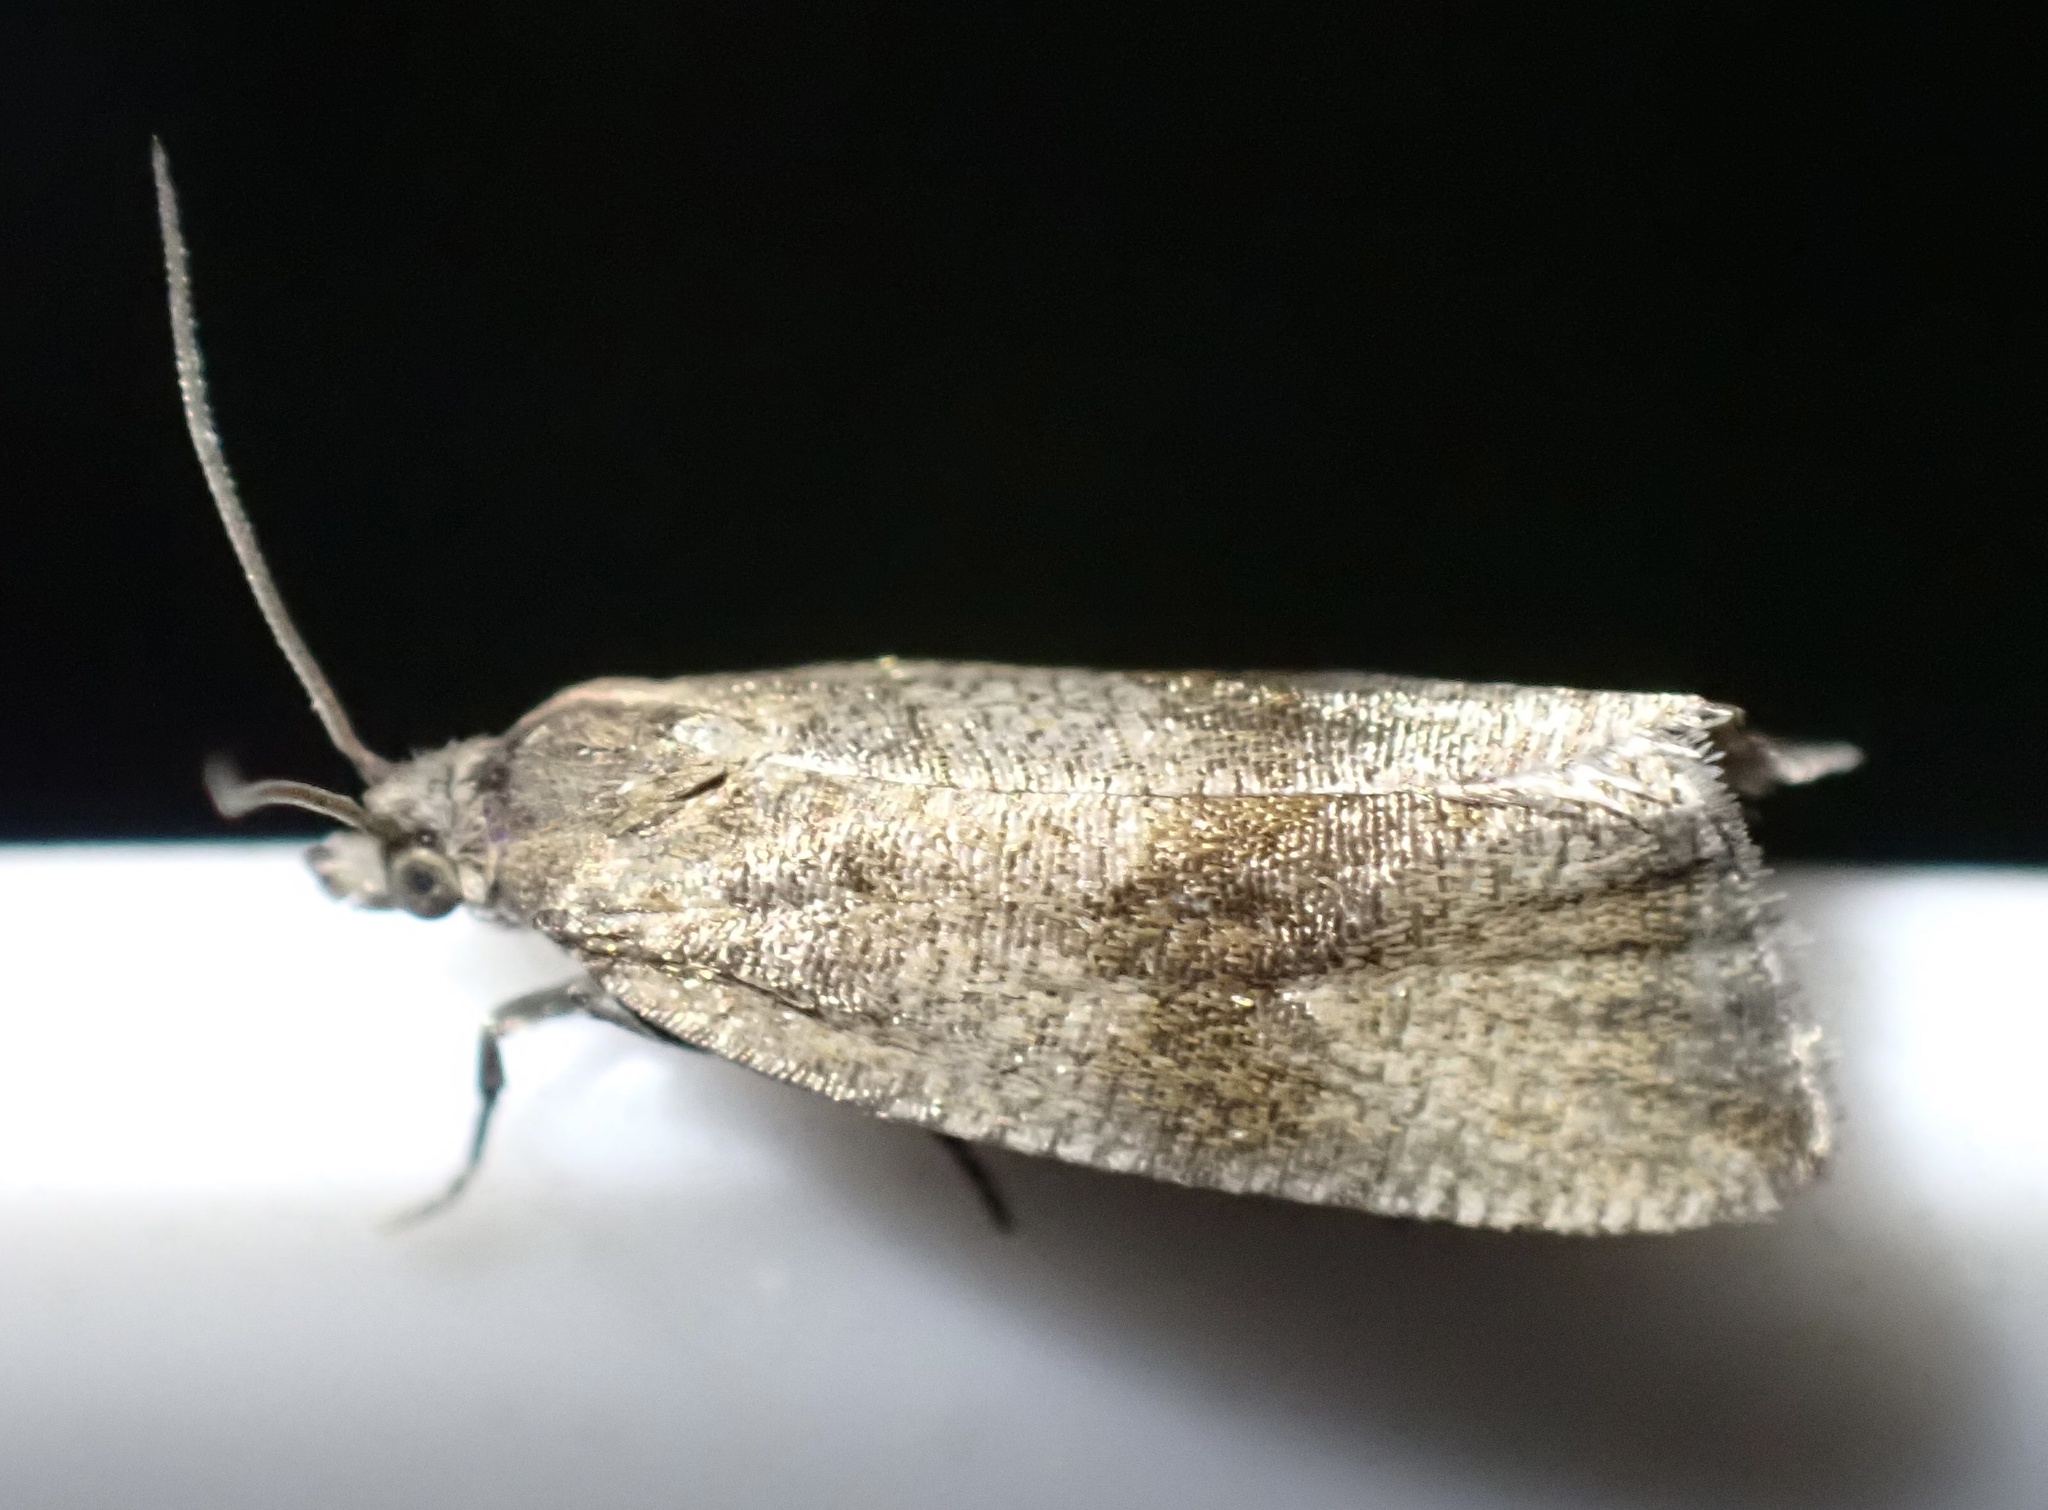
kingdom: Animalia
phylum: Arthropoda
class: Insecta
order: Lepidoptera
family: Tortricidae
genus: Celypha
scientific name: Celypha striana
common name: Barred marble
